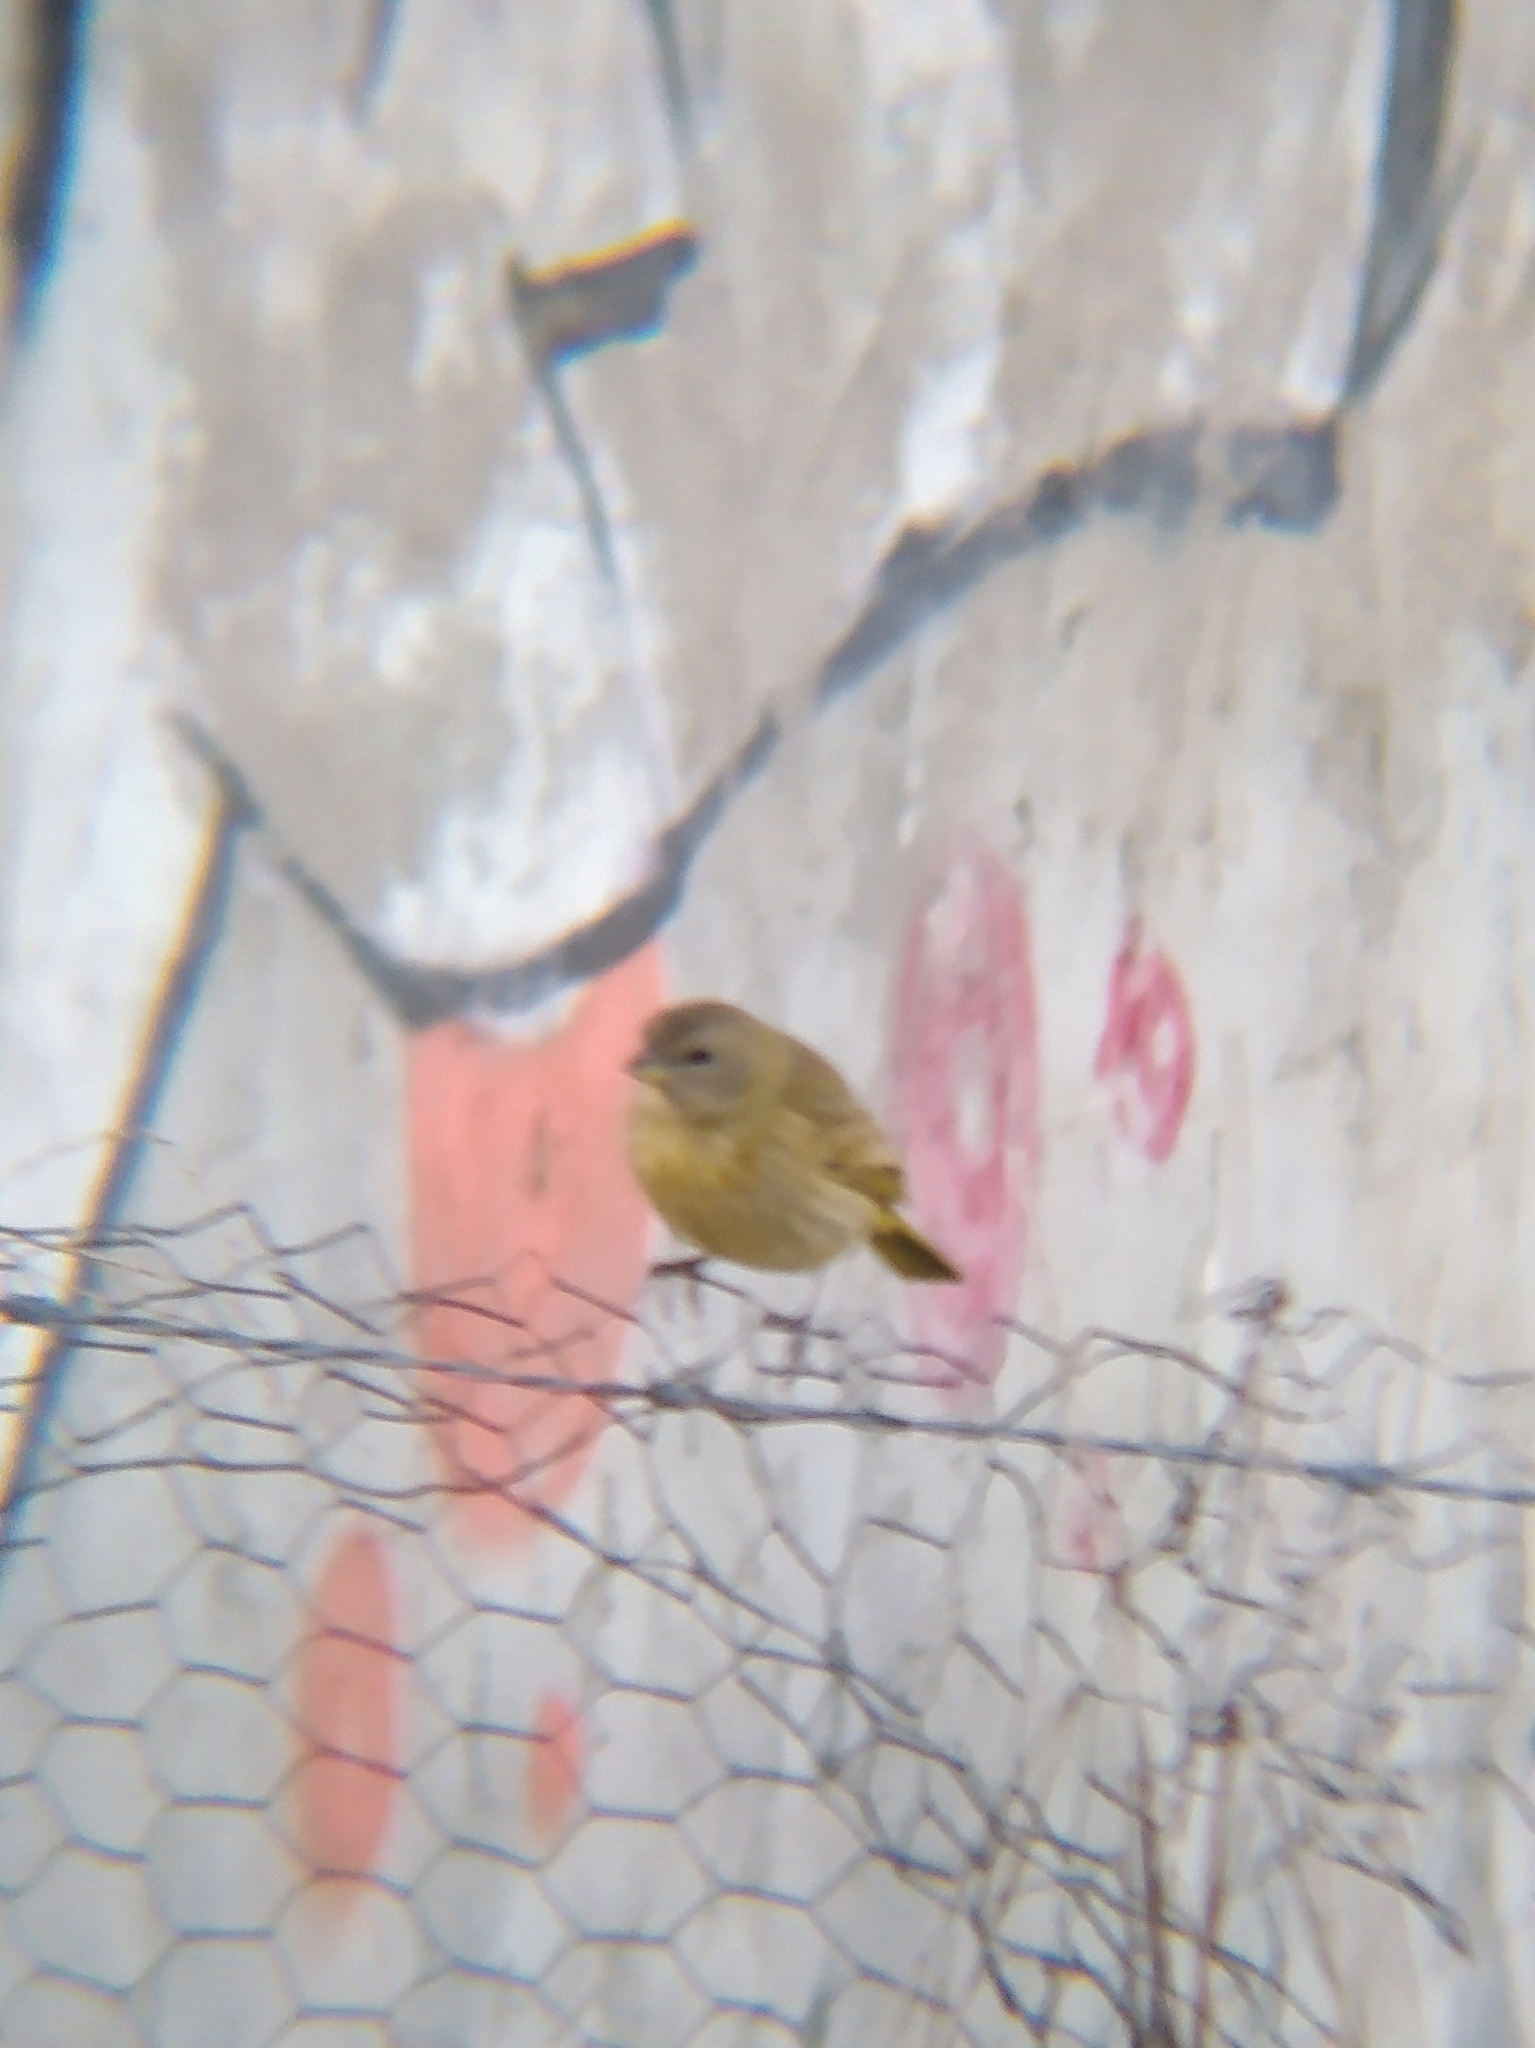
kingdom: Animalia
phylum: Chordata
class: Aves
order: Passeriformes
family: Thraupidae
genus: Sicalis
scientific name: Sicalis flaveola
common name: Saffron finch
